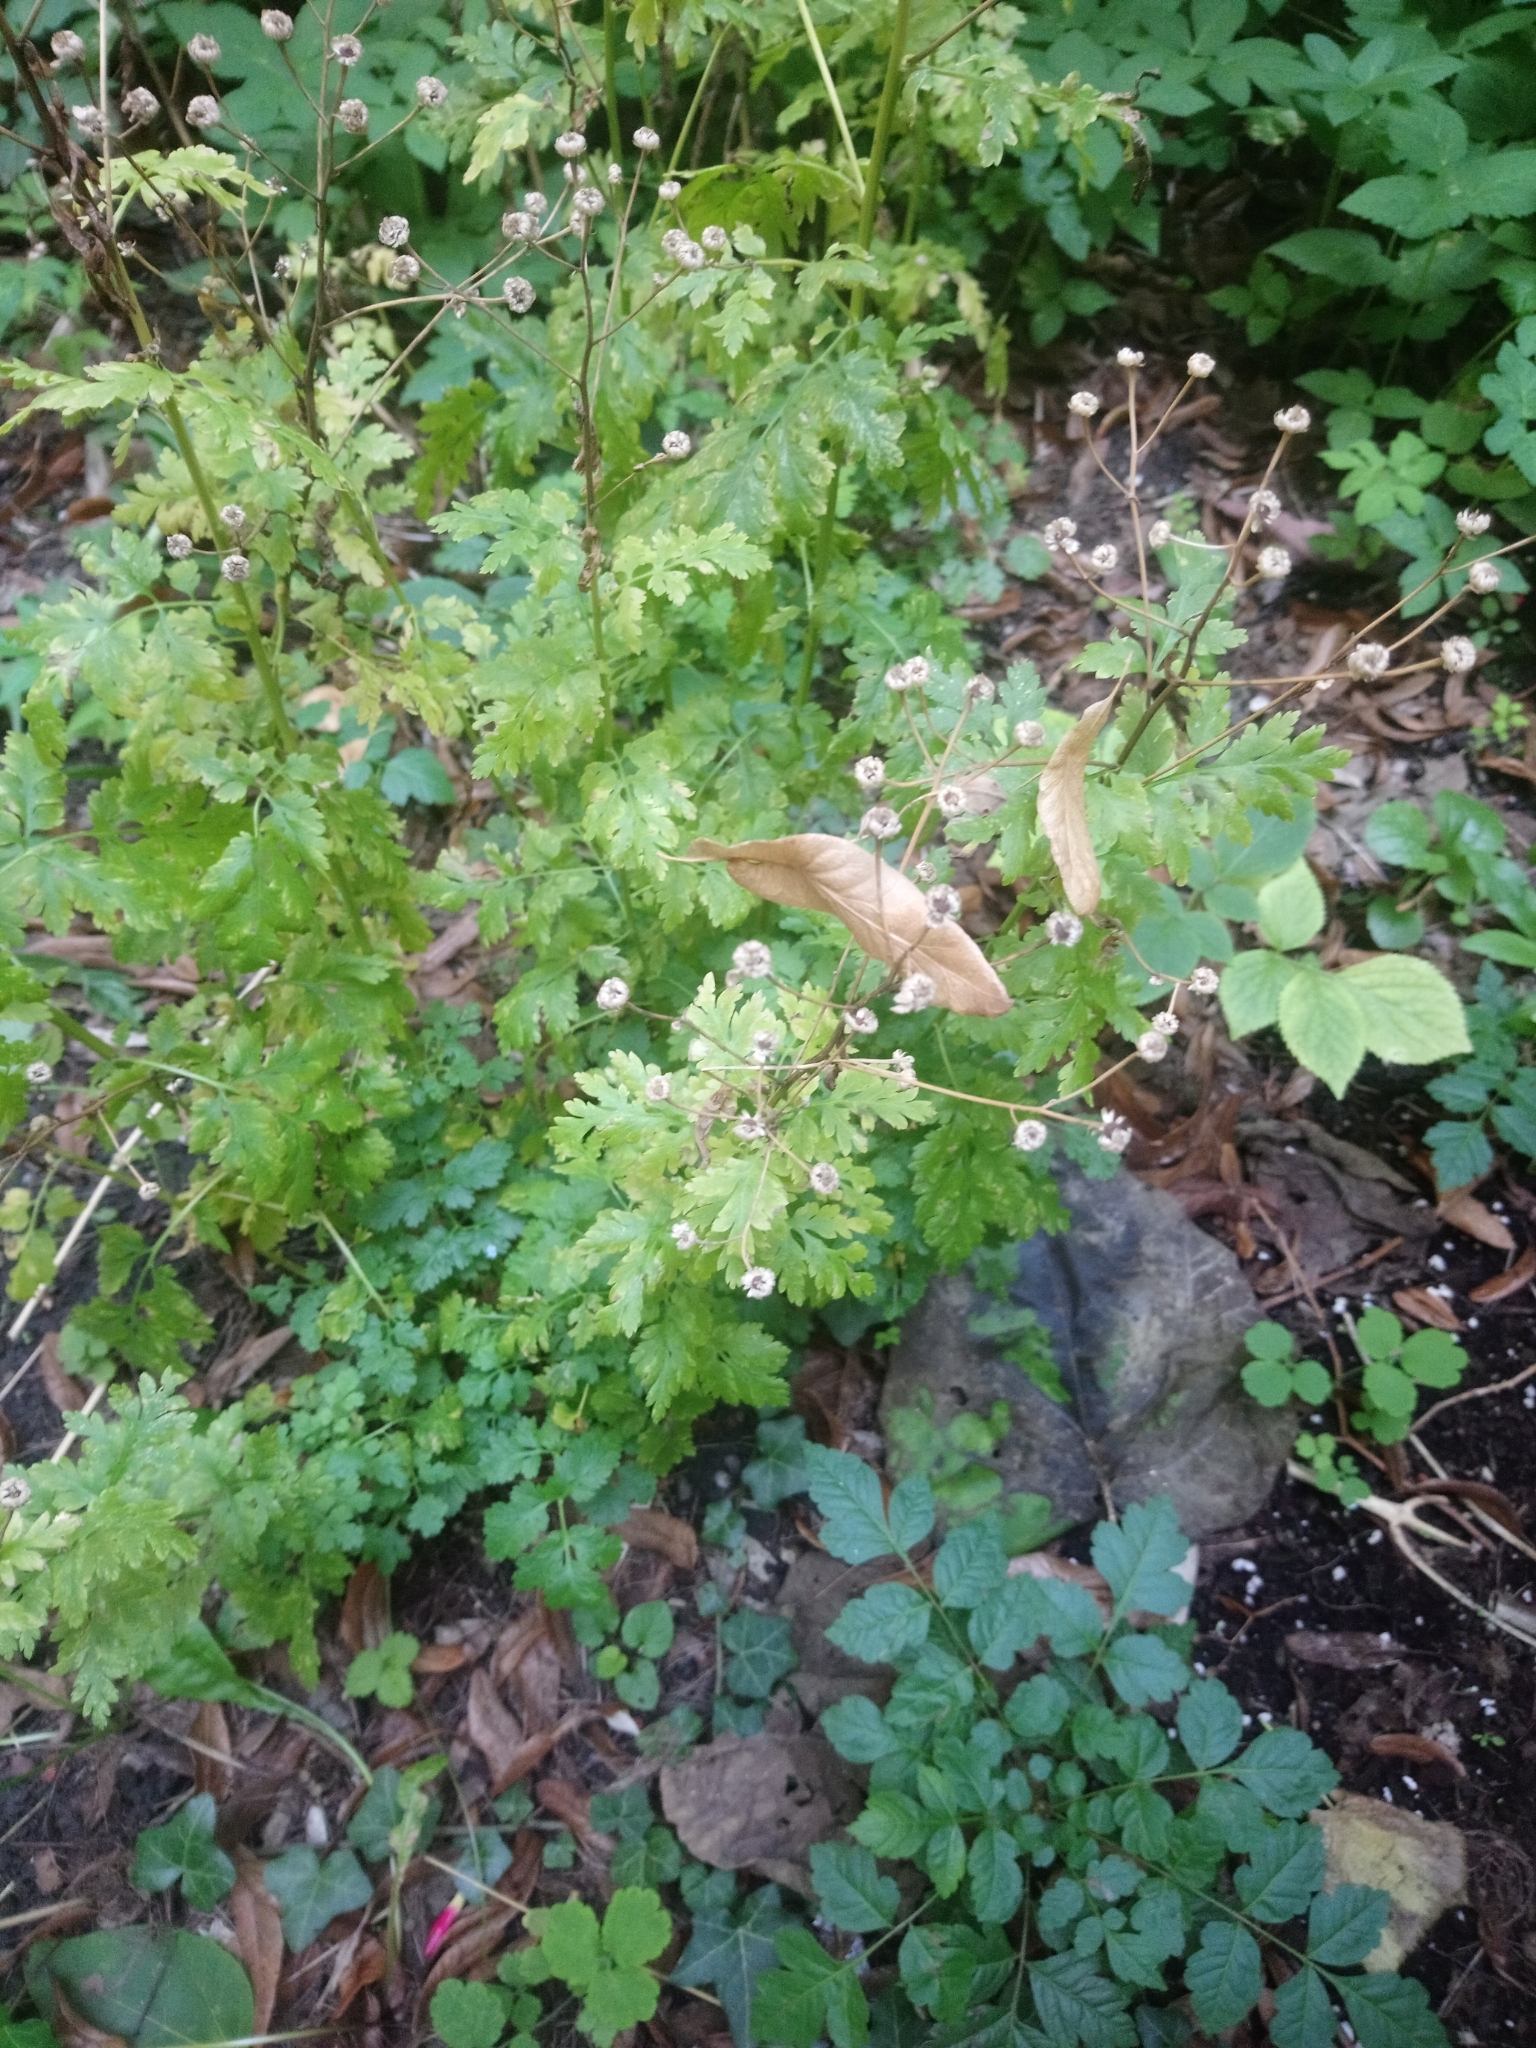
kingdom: Plantae
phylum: Tracheophyta
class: Magnoliopsida
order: Asterales
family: Asteraceae
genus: Tanacetum
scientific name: Tanacetum parthenium
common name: Feverfew
